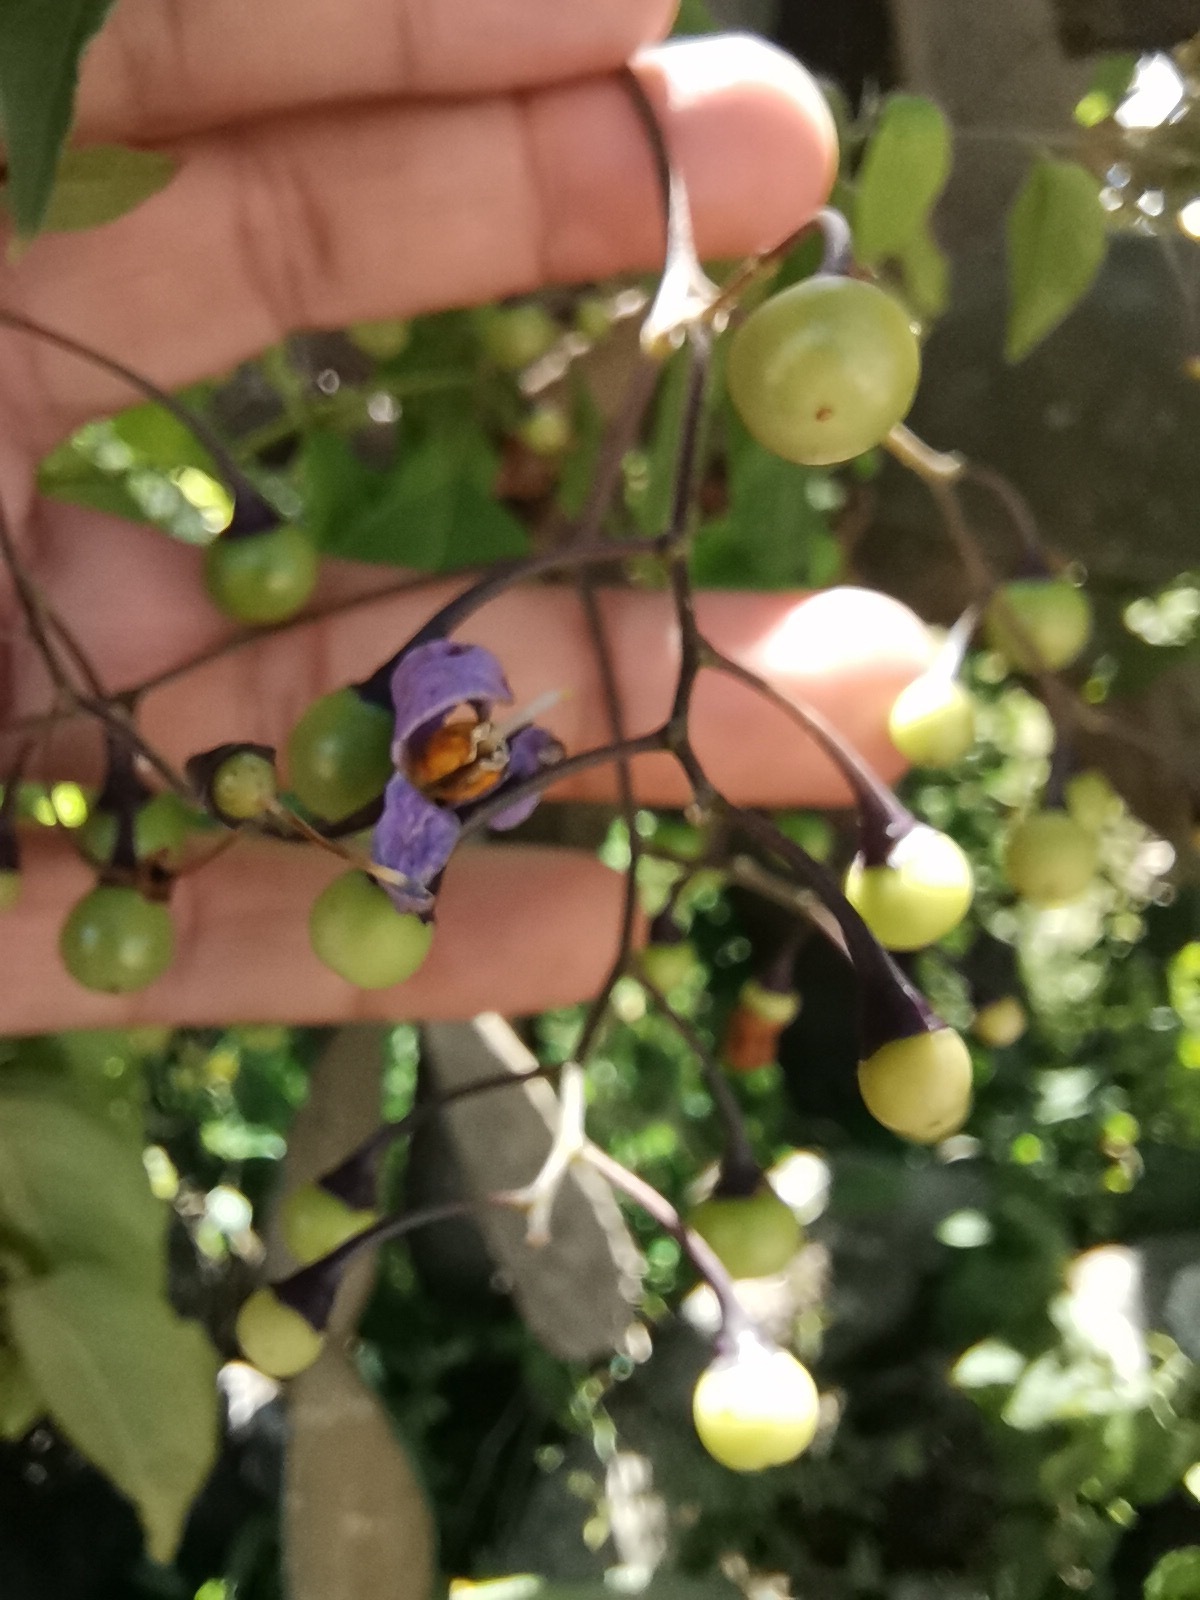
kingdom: Plantae
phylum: Tracheophyta
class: Magnoliopsida
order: Solanales
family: Solanaceae
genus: Solanum
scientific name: Solanum dulcamaroides
